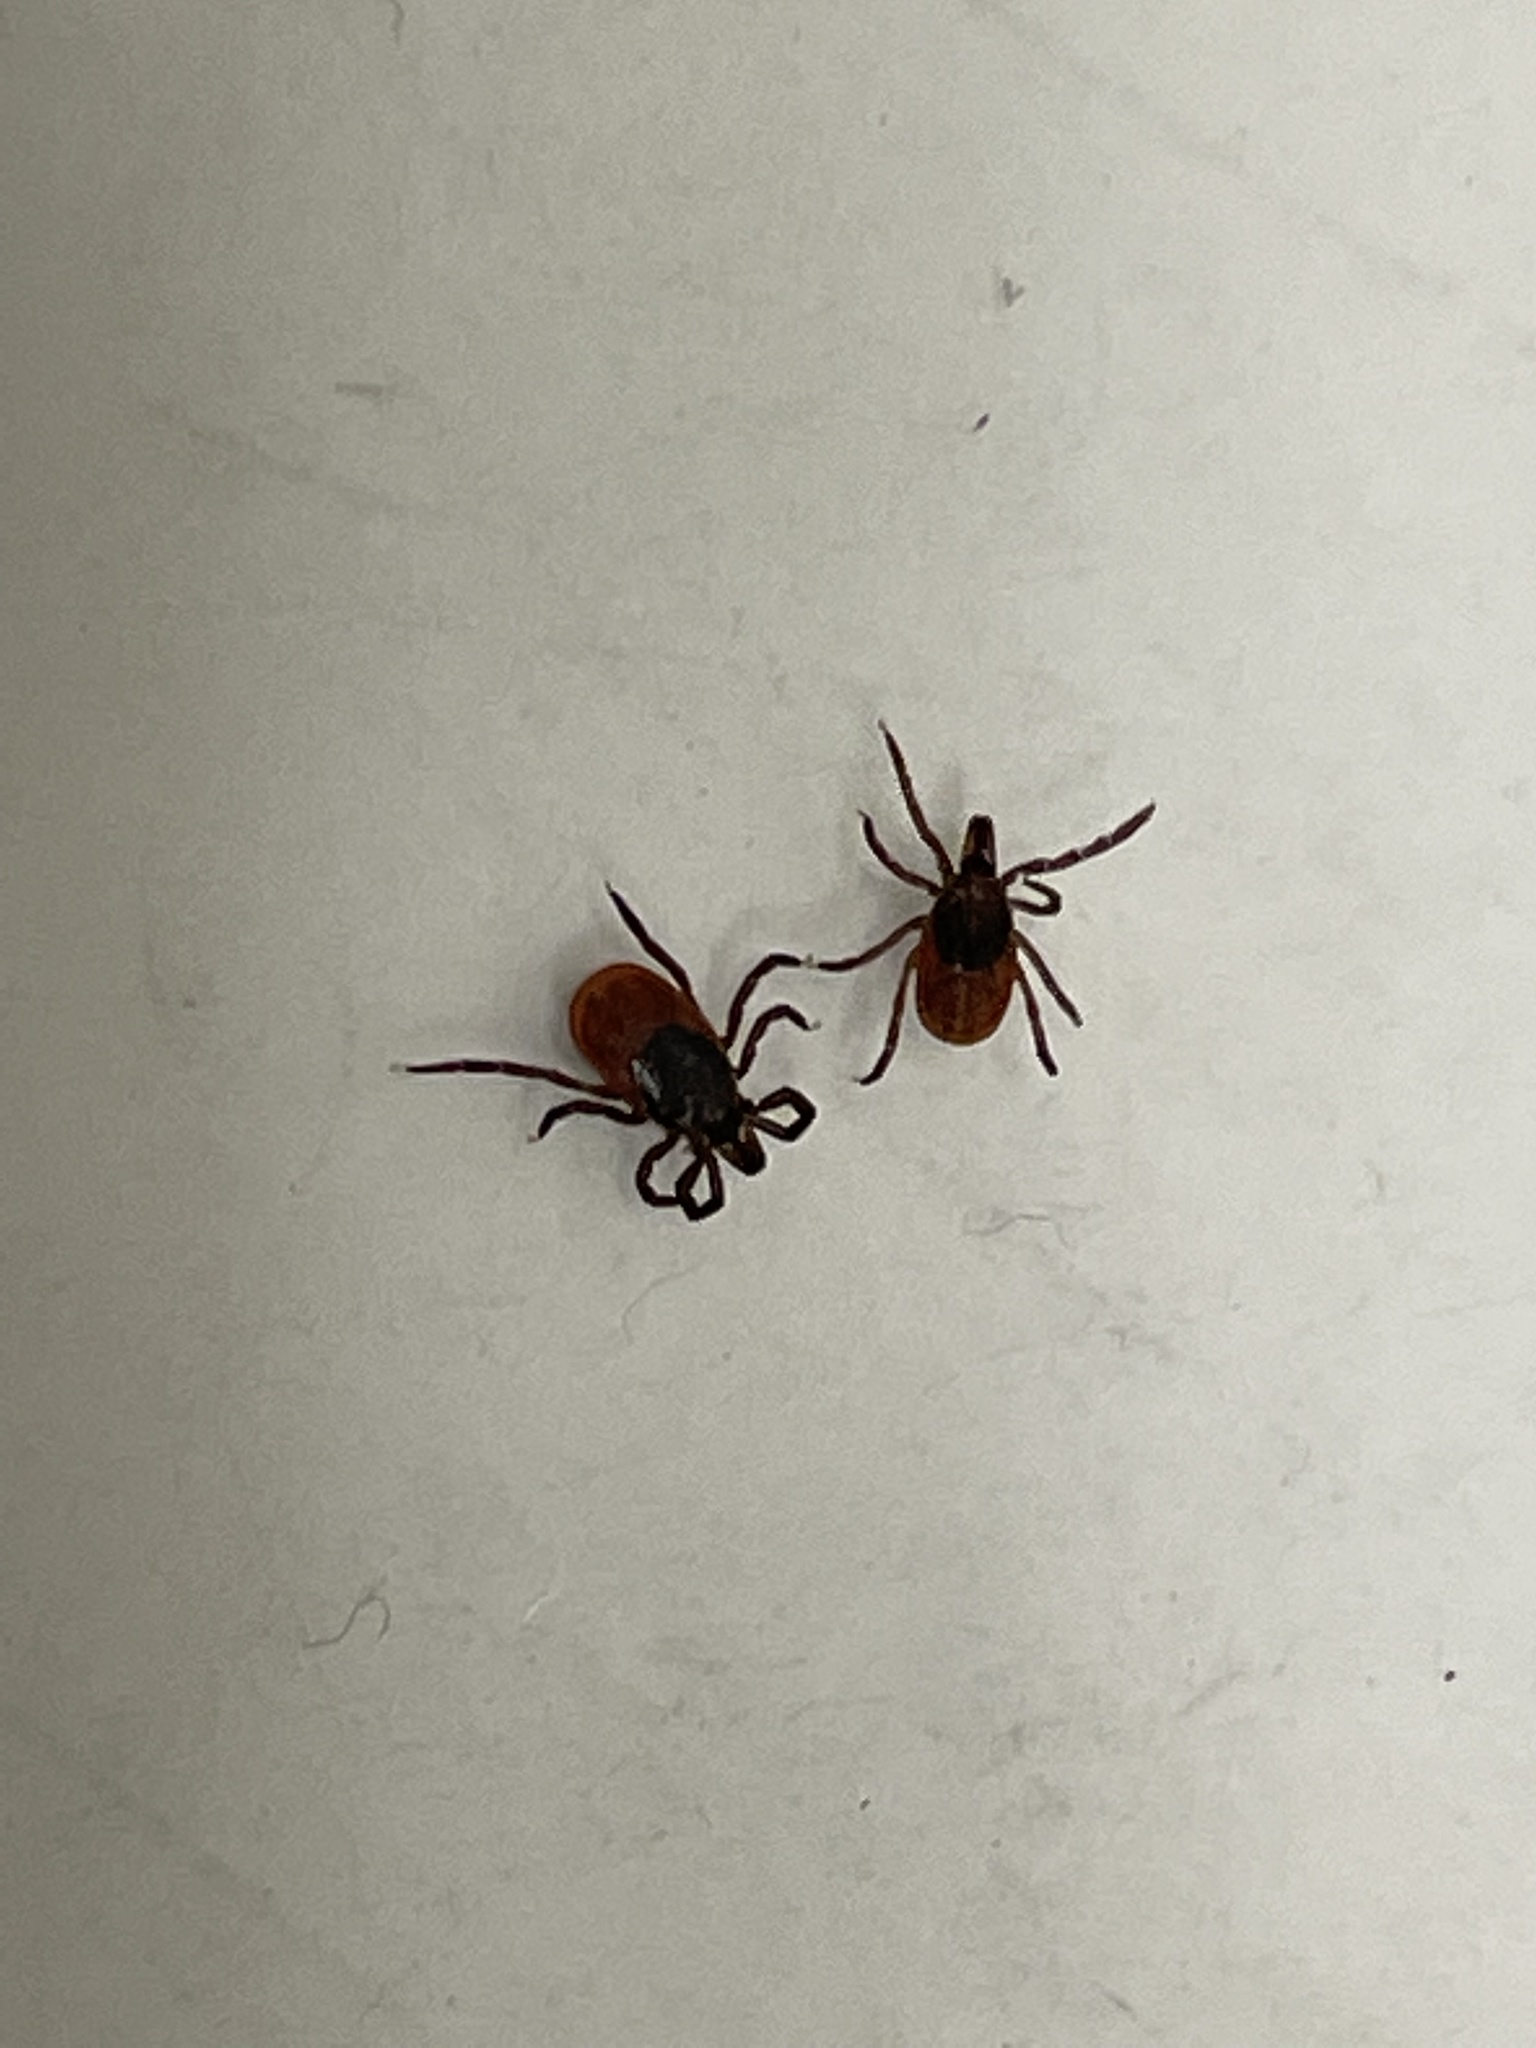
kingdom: Animalia
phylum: Arthropoda
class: Arachnida
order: Ixodida
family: Ixodidae
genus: Ixodes
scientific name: Ixodes scapularis
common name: Black legged tick
